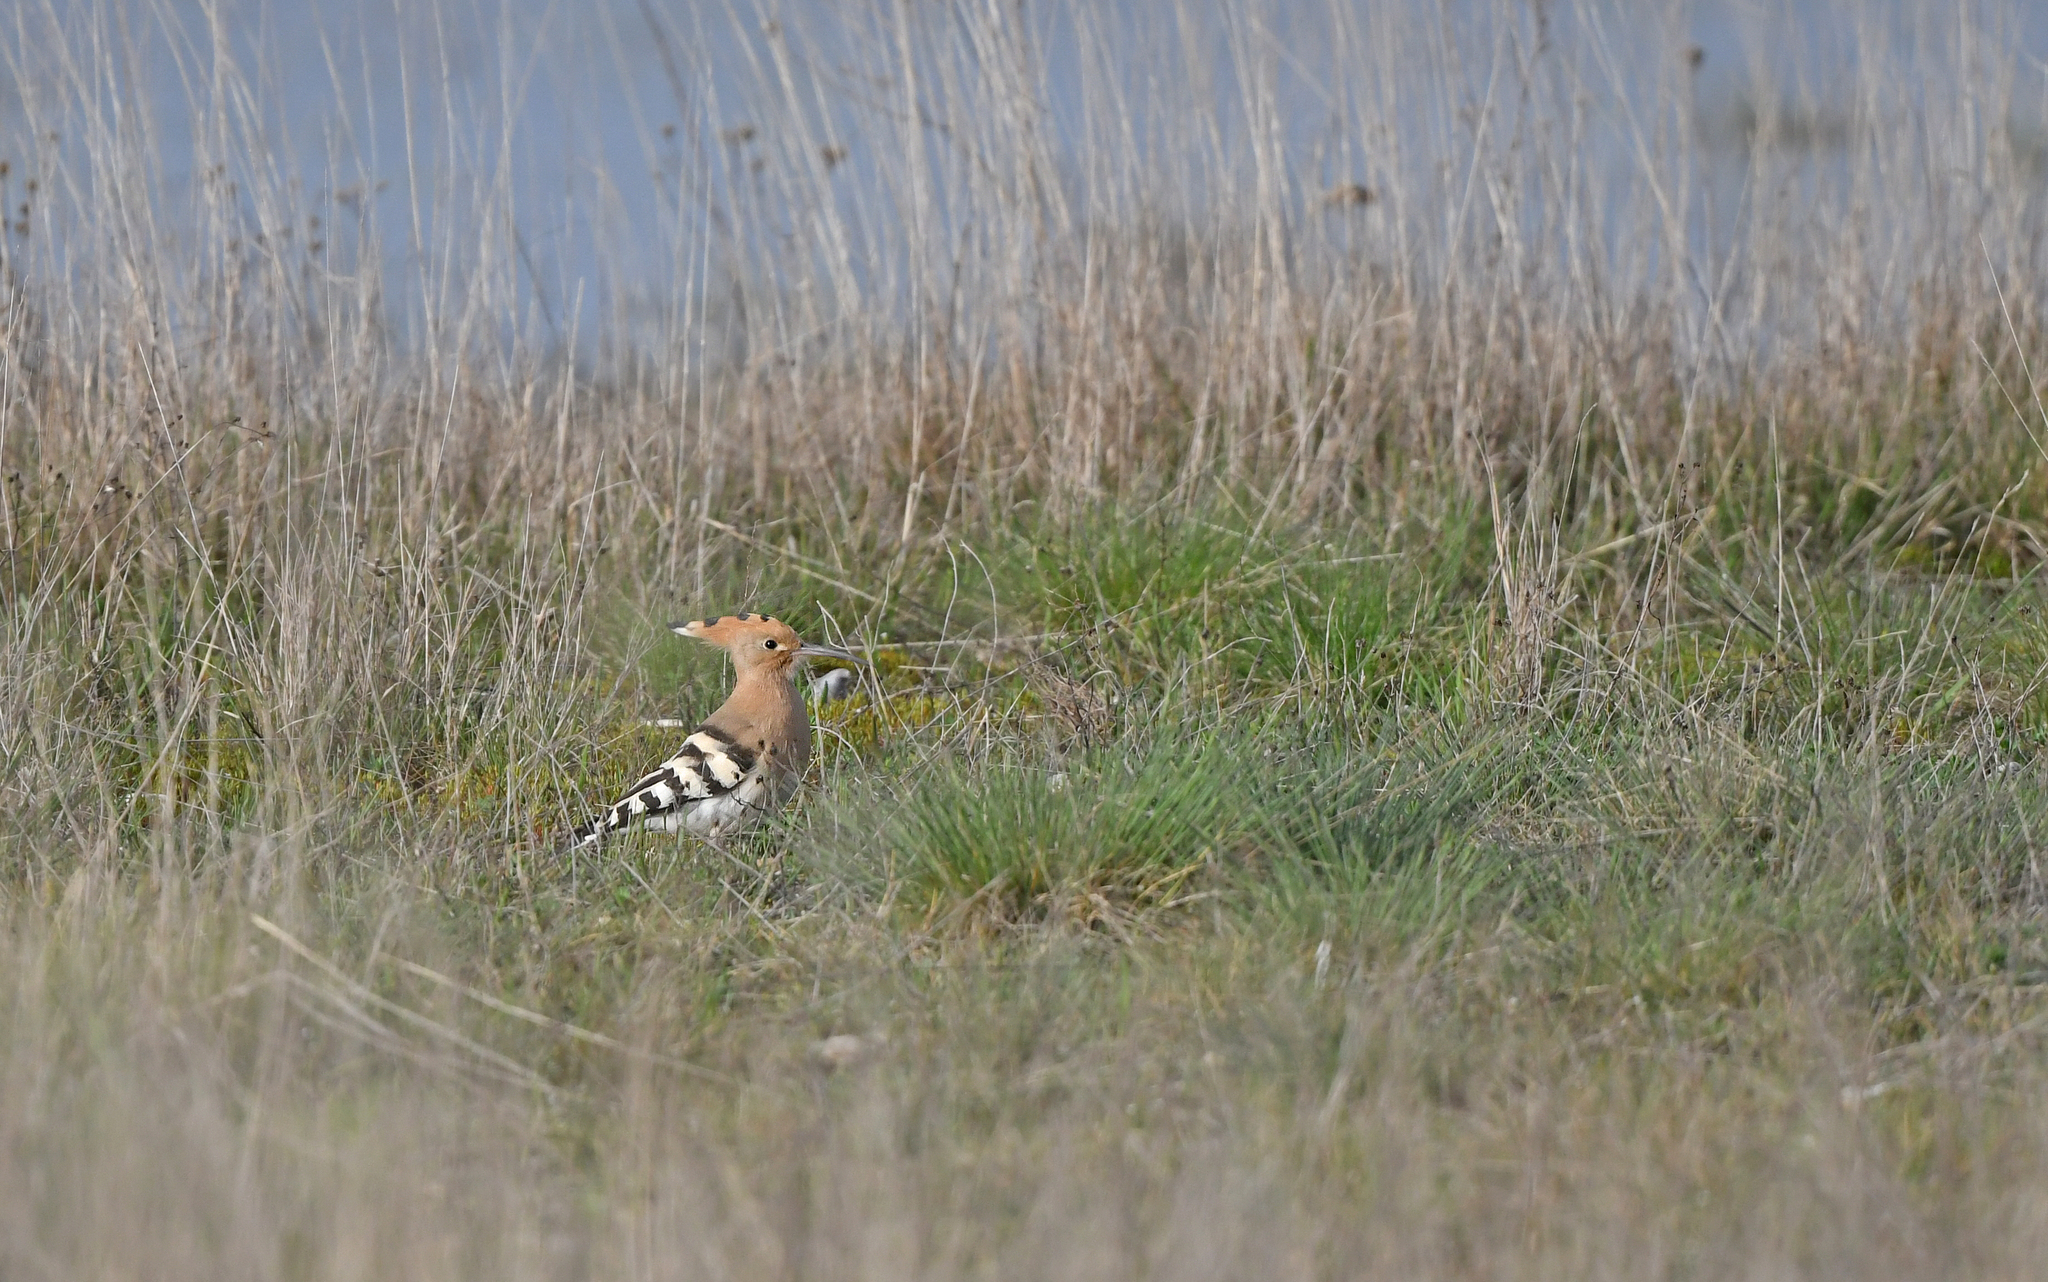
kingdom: Animalia
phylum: Chordata
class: Aves
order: Bucerotiformes
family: Upupidae
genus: Upupa
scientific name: Upupa epops
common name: Eurasian hoopoe
